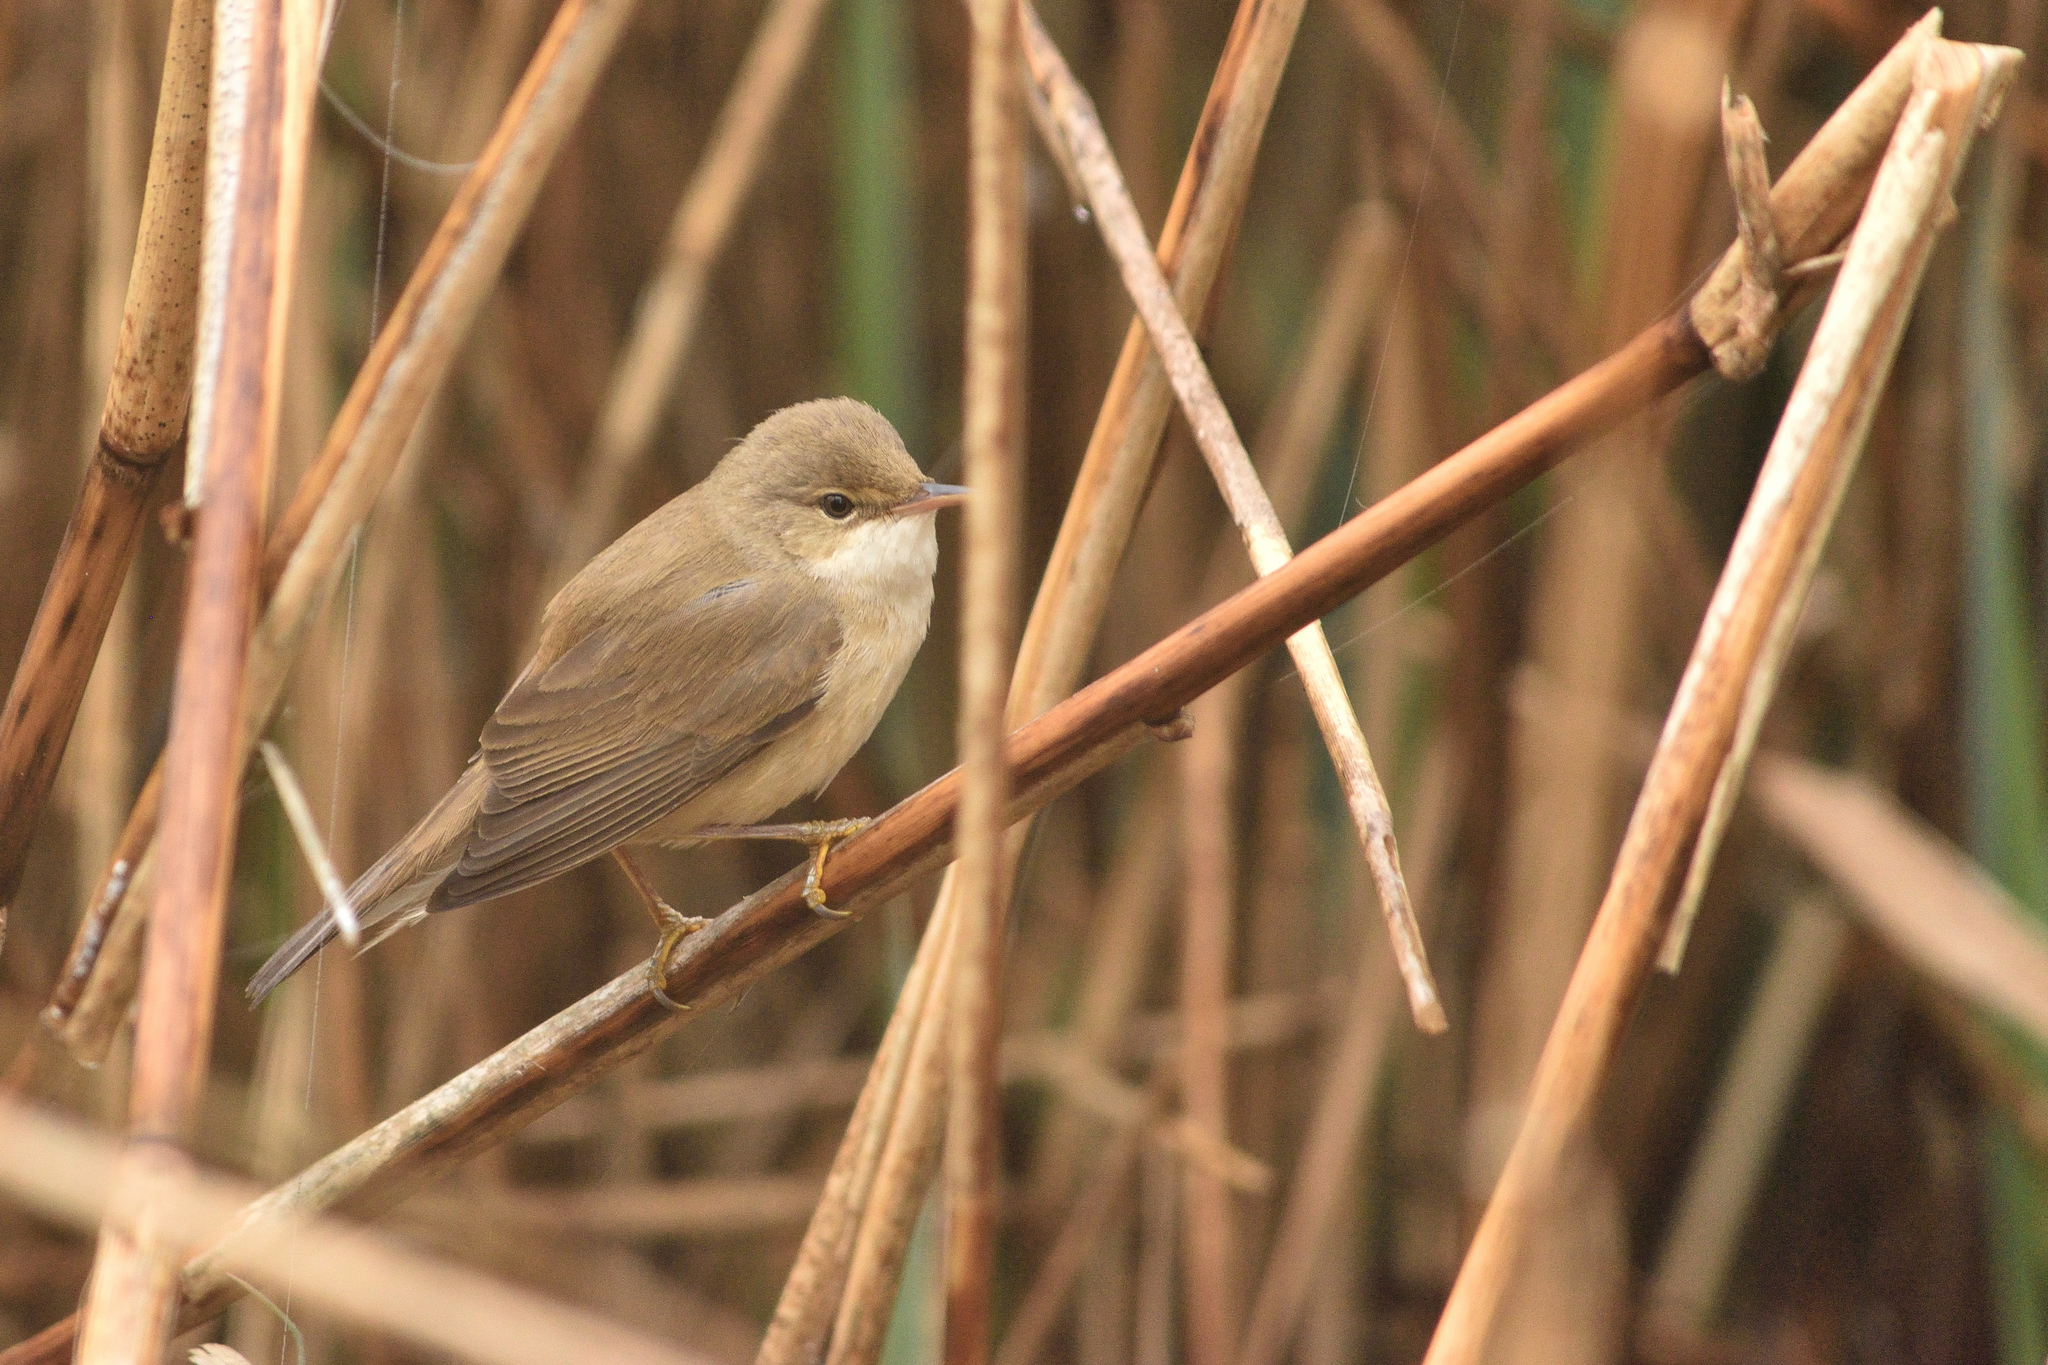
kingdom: Animalia
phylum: Chordata
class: Aves
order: Passeriformes
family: Acrocephalidae
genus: Acrocephalus
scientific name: Acrocephalus scirpaceus
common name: Eurasian reed warbler
